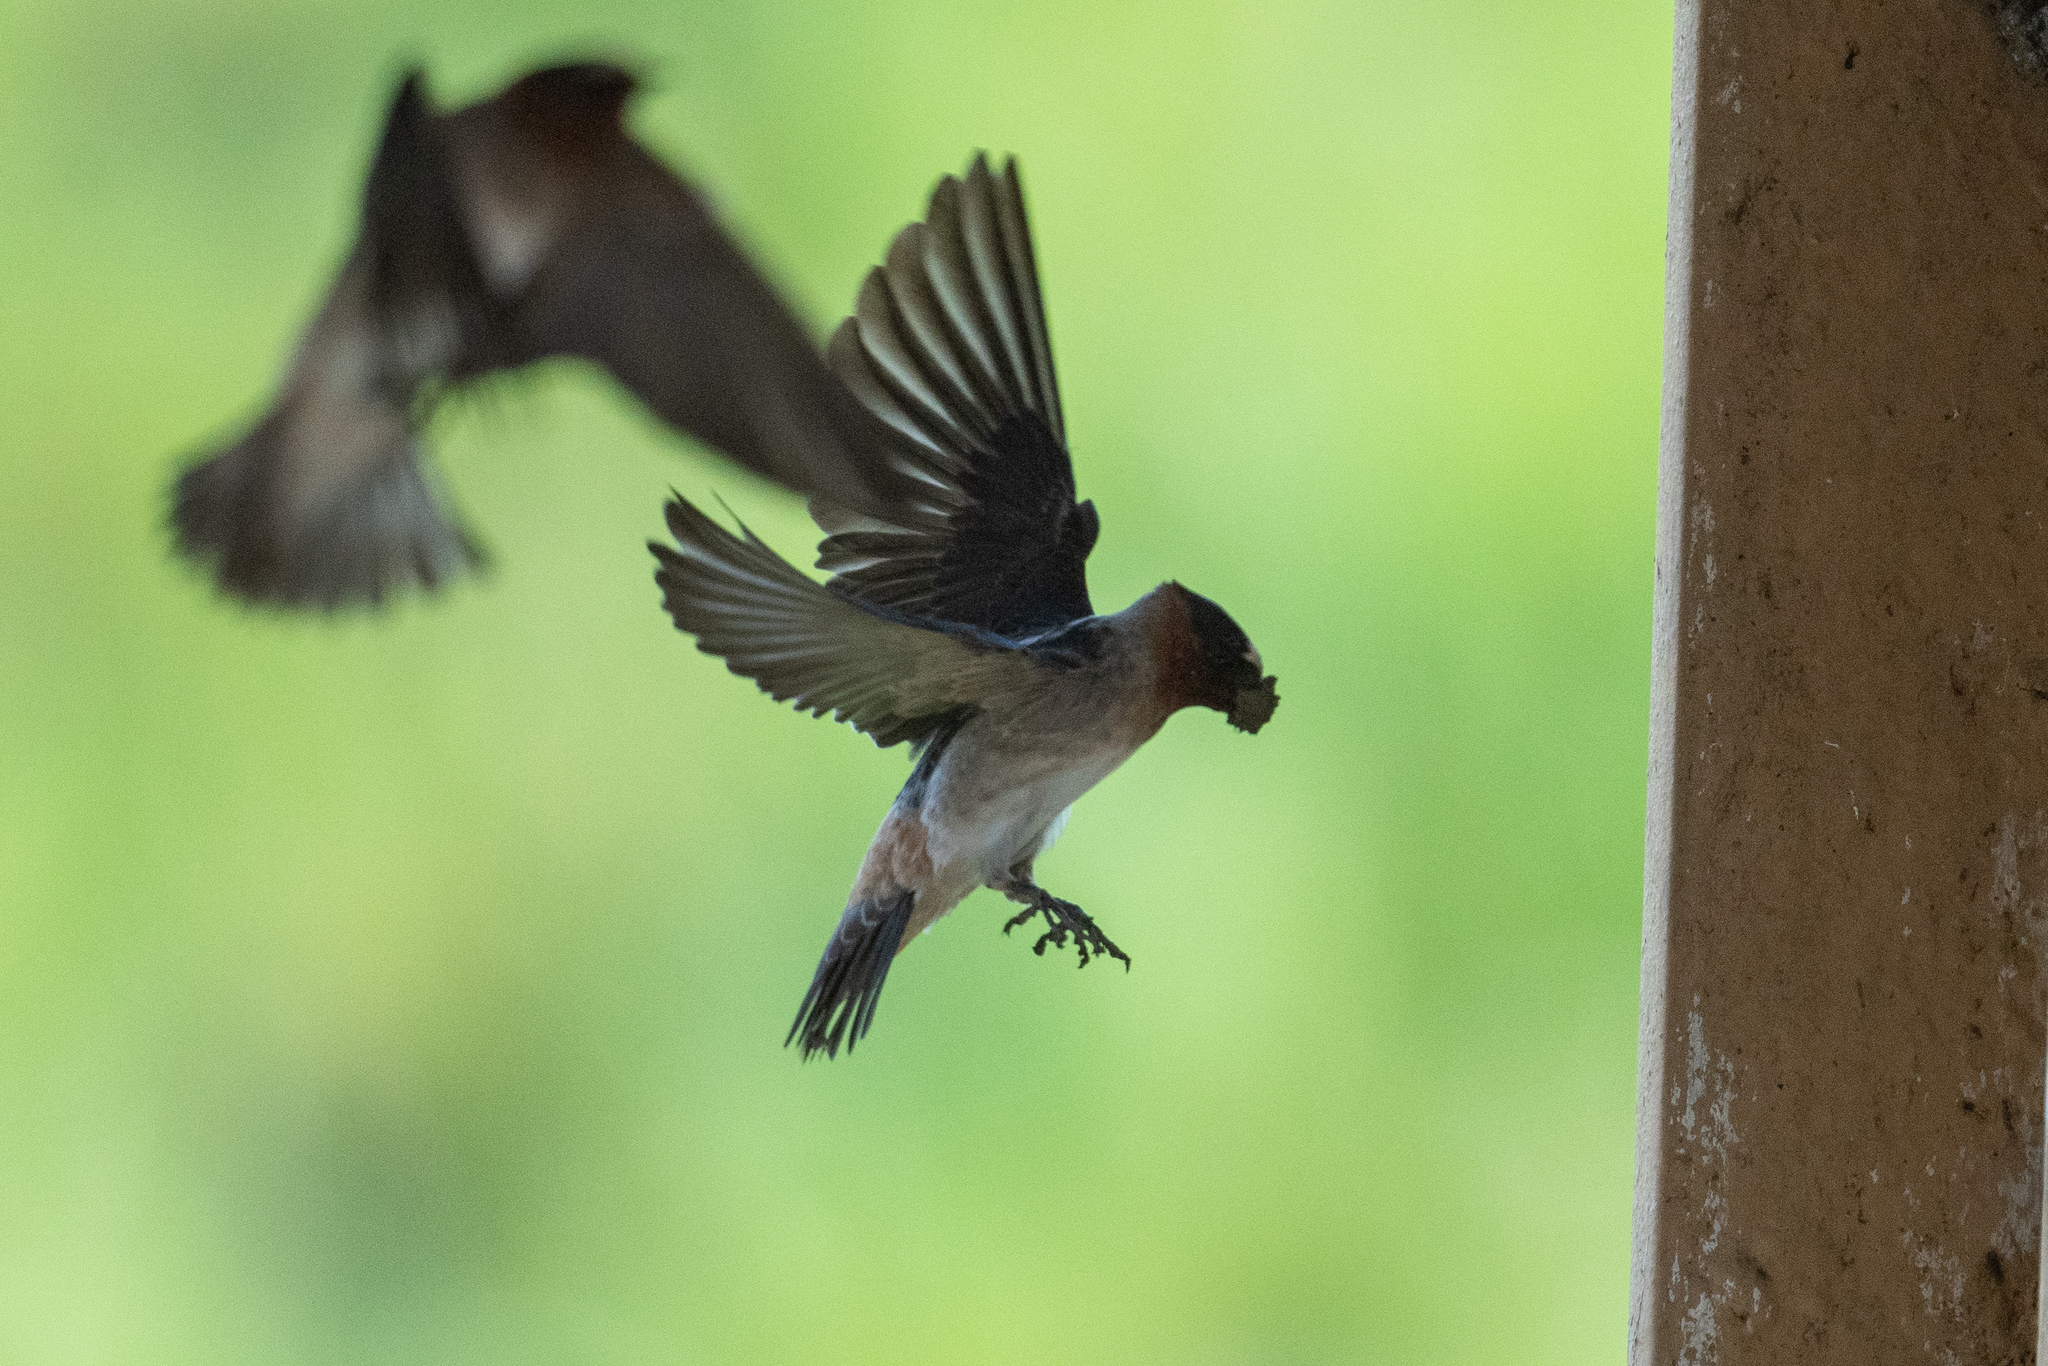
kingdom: Animalia
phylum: Chordata
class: Aves
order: Passeriformes
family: Hirundinidae
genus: Petrochelidon
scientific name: Petrochelidon pyrrhonota
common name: American cliff swallow
